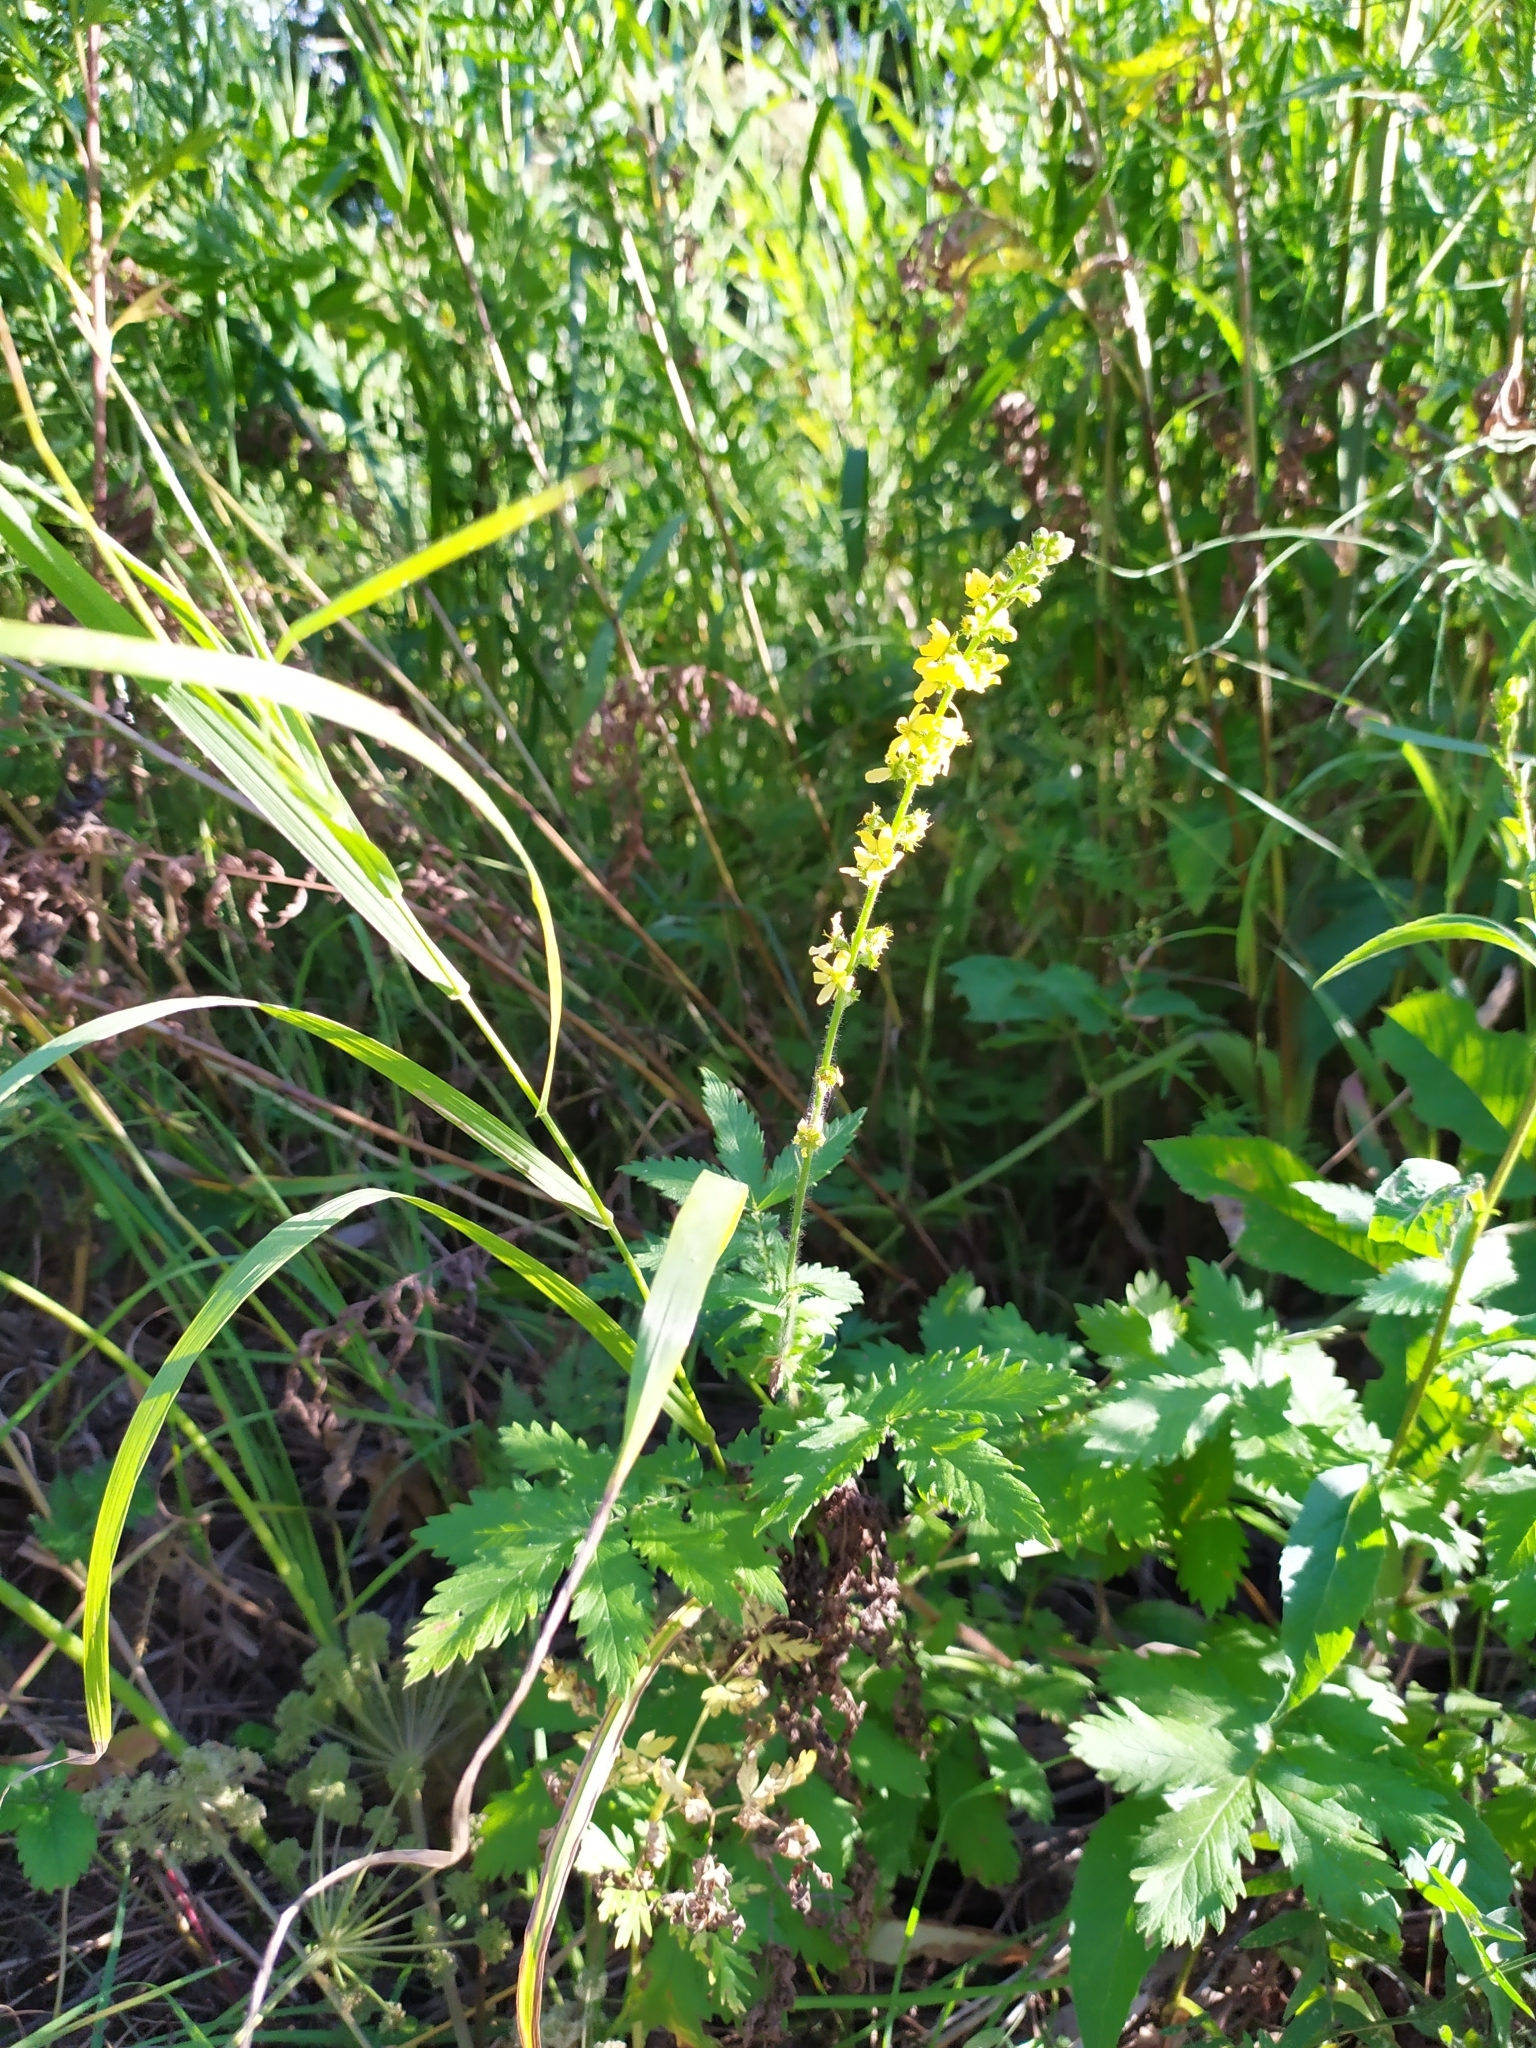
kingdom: Plantae
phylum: Tracheophyta
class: Magnoliopsida
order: Rosales
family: Rosaceae
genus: Agrimonia
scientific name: Agrimonia eupatoria
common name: Agrimony
